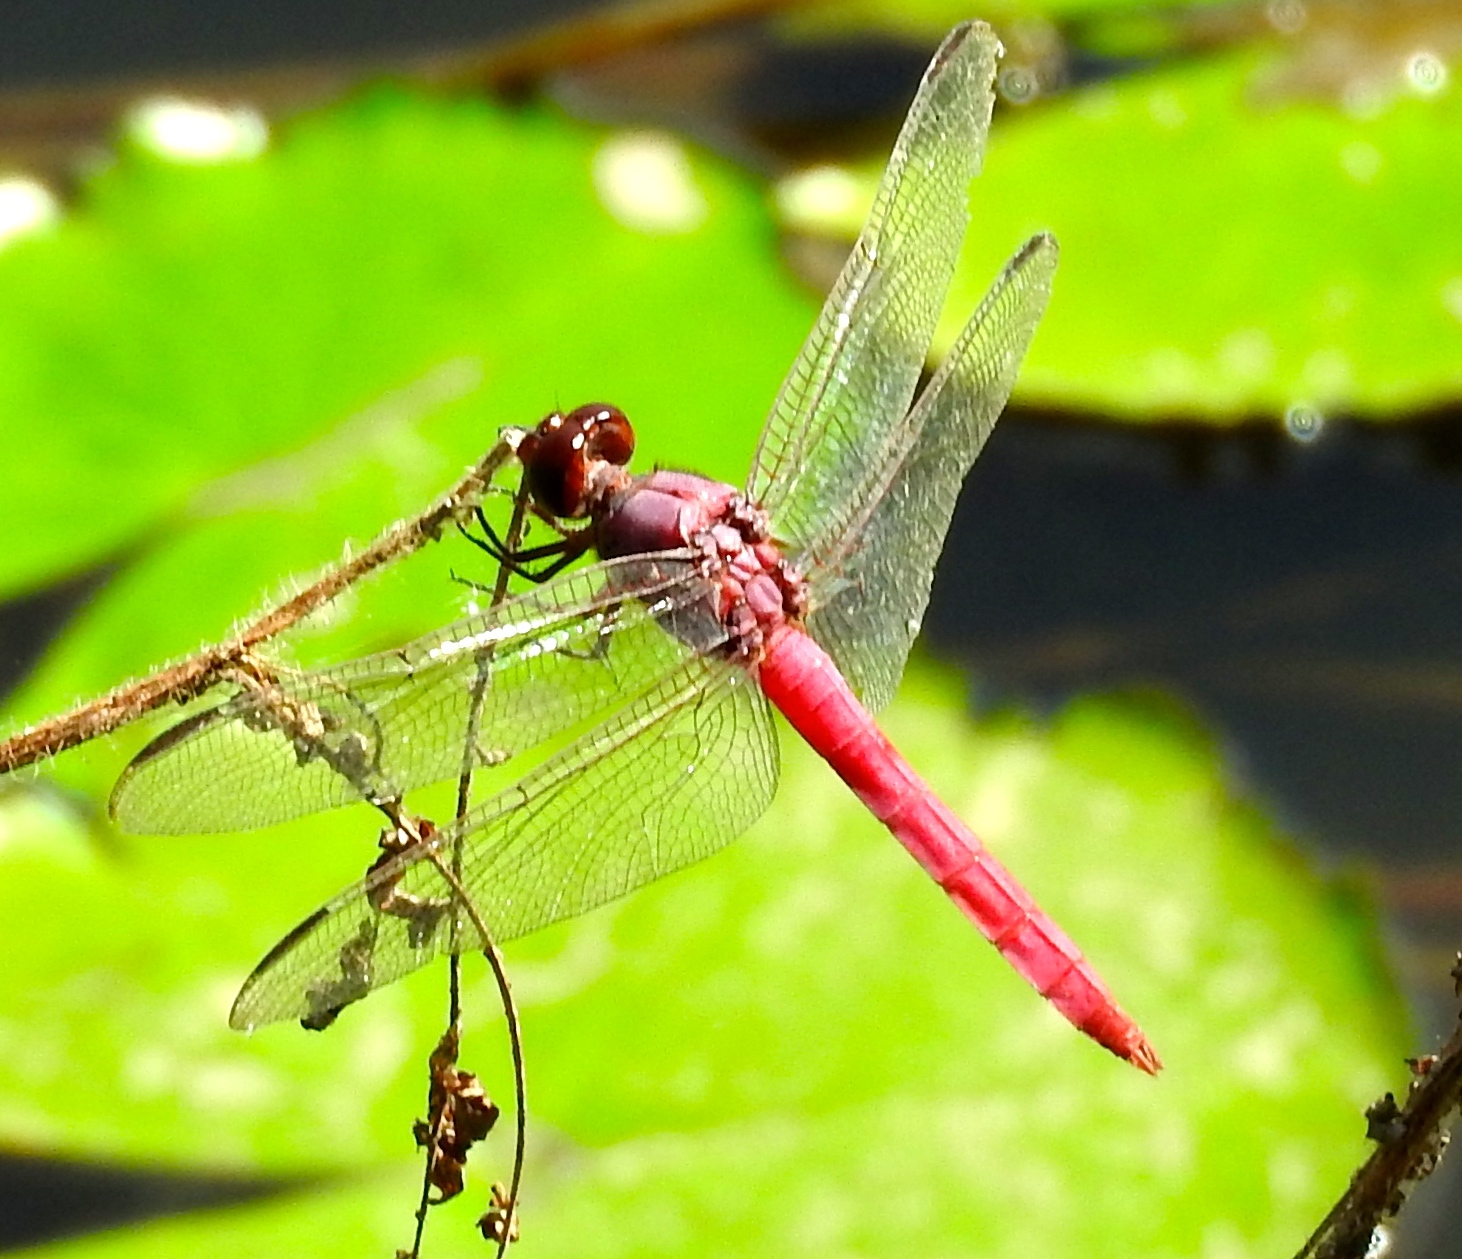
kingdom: Animalia
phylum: Arthropoda
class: Insecta
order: Odonata
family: Libellulidae
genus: Orthemis
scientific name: Orthemis ferruginea
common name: Roseate skimmer
